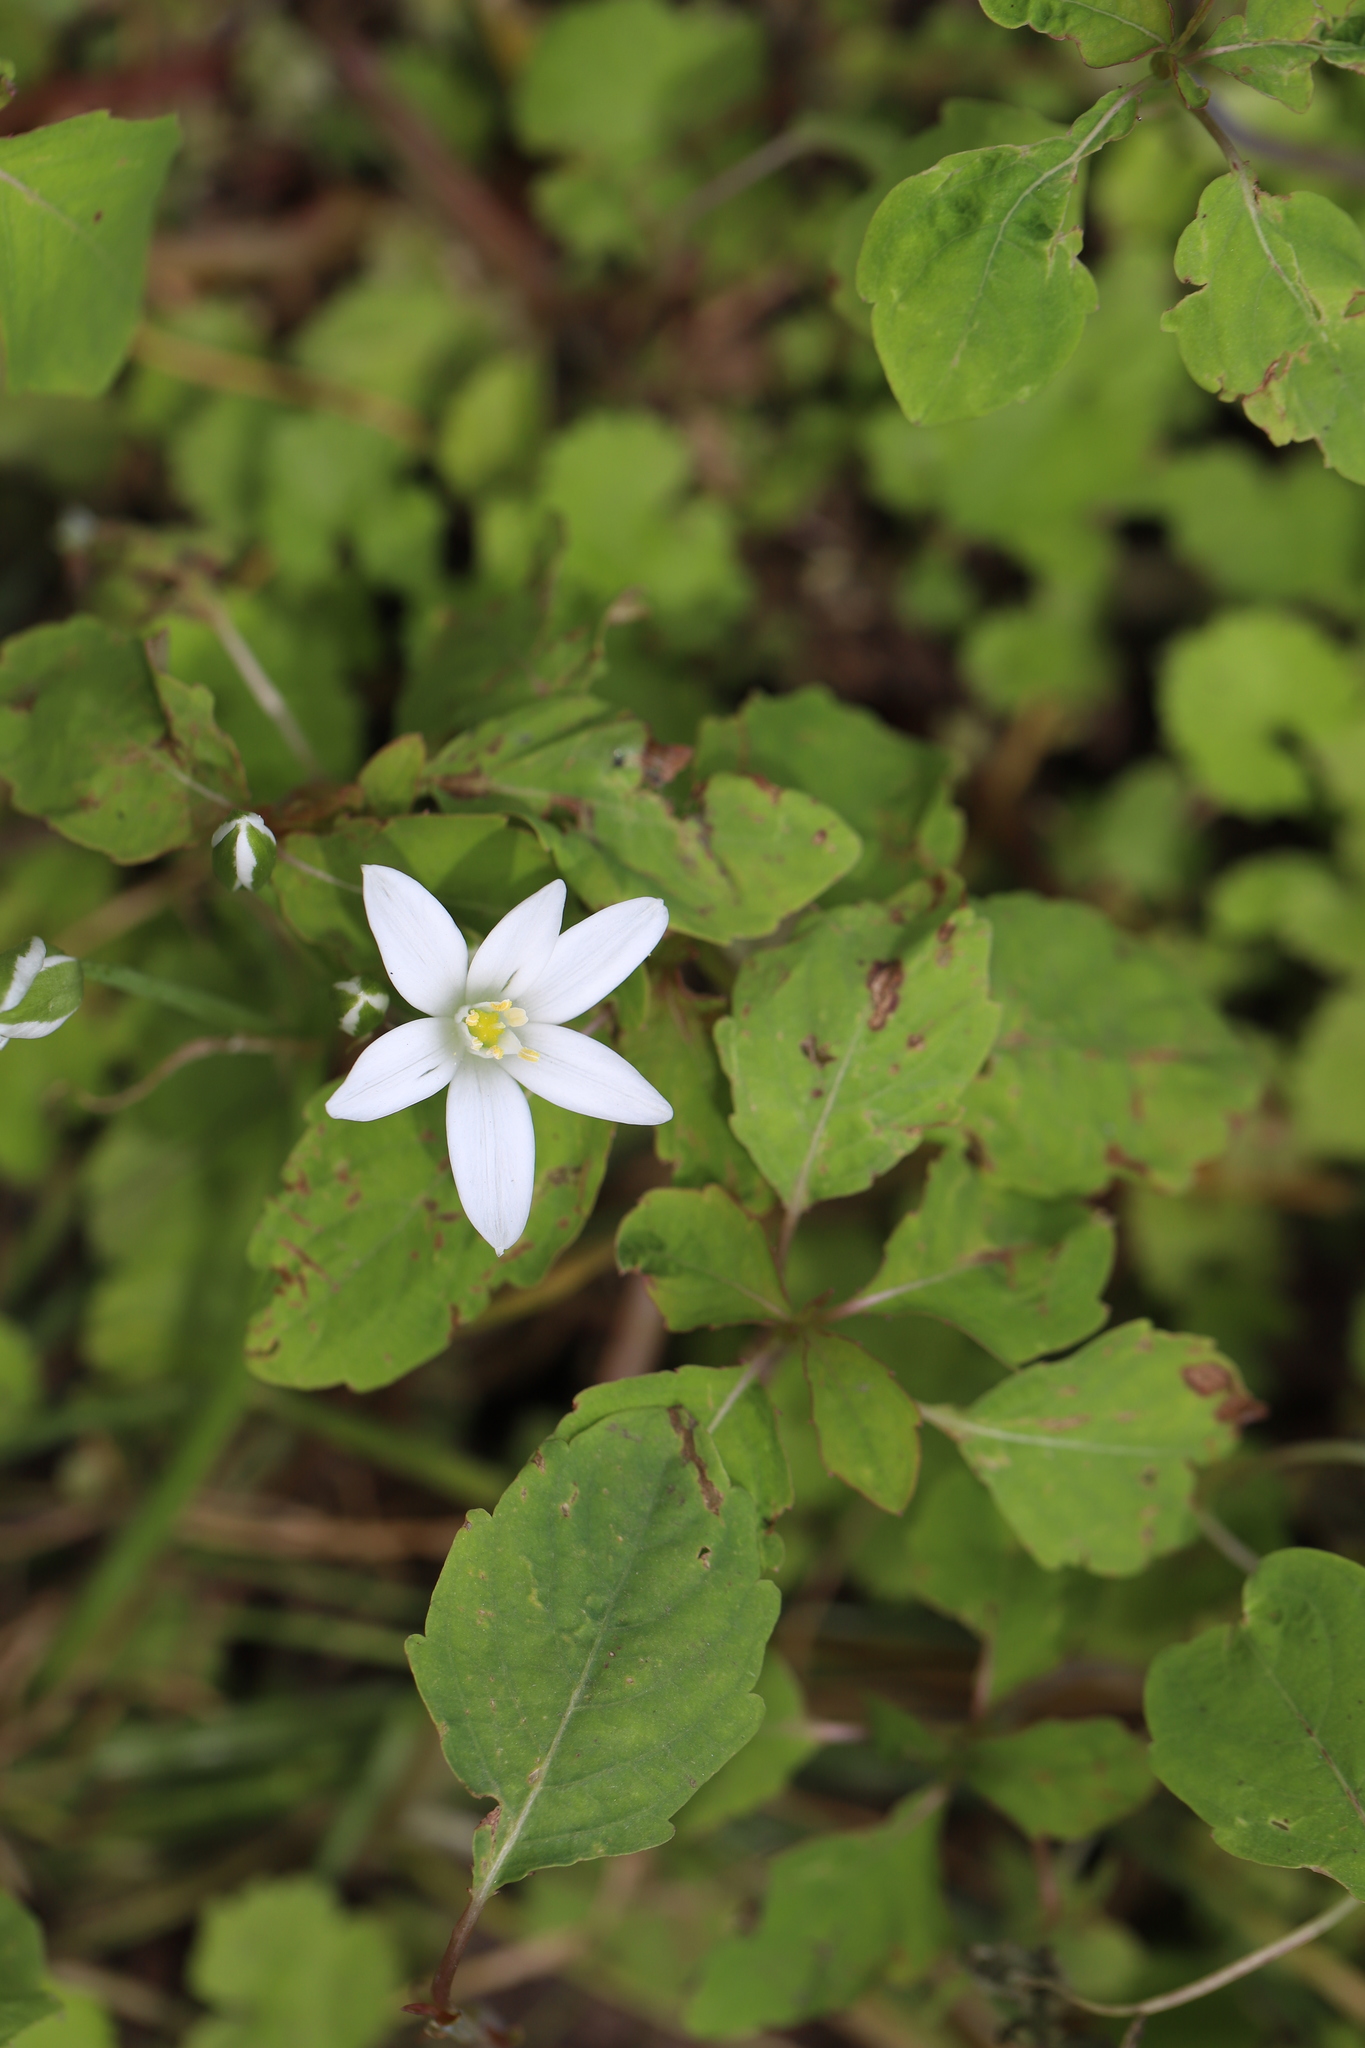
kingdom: Plantae
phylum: Tracheophyta
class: Liliopsida
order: Asparagales
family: Asparagaceae
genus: Ornithogalum
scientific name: Ornithogalum umbellatum
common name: Garden star-of-bethlehem
